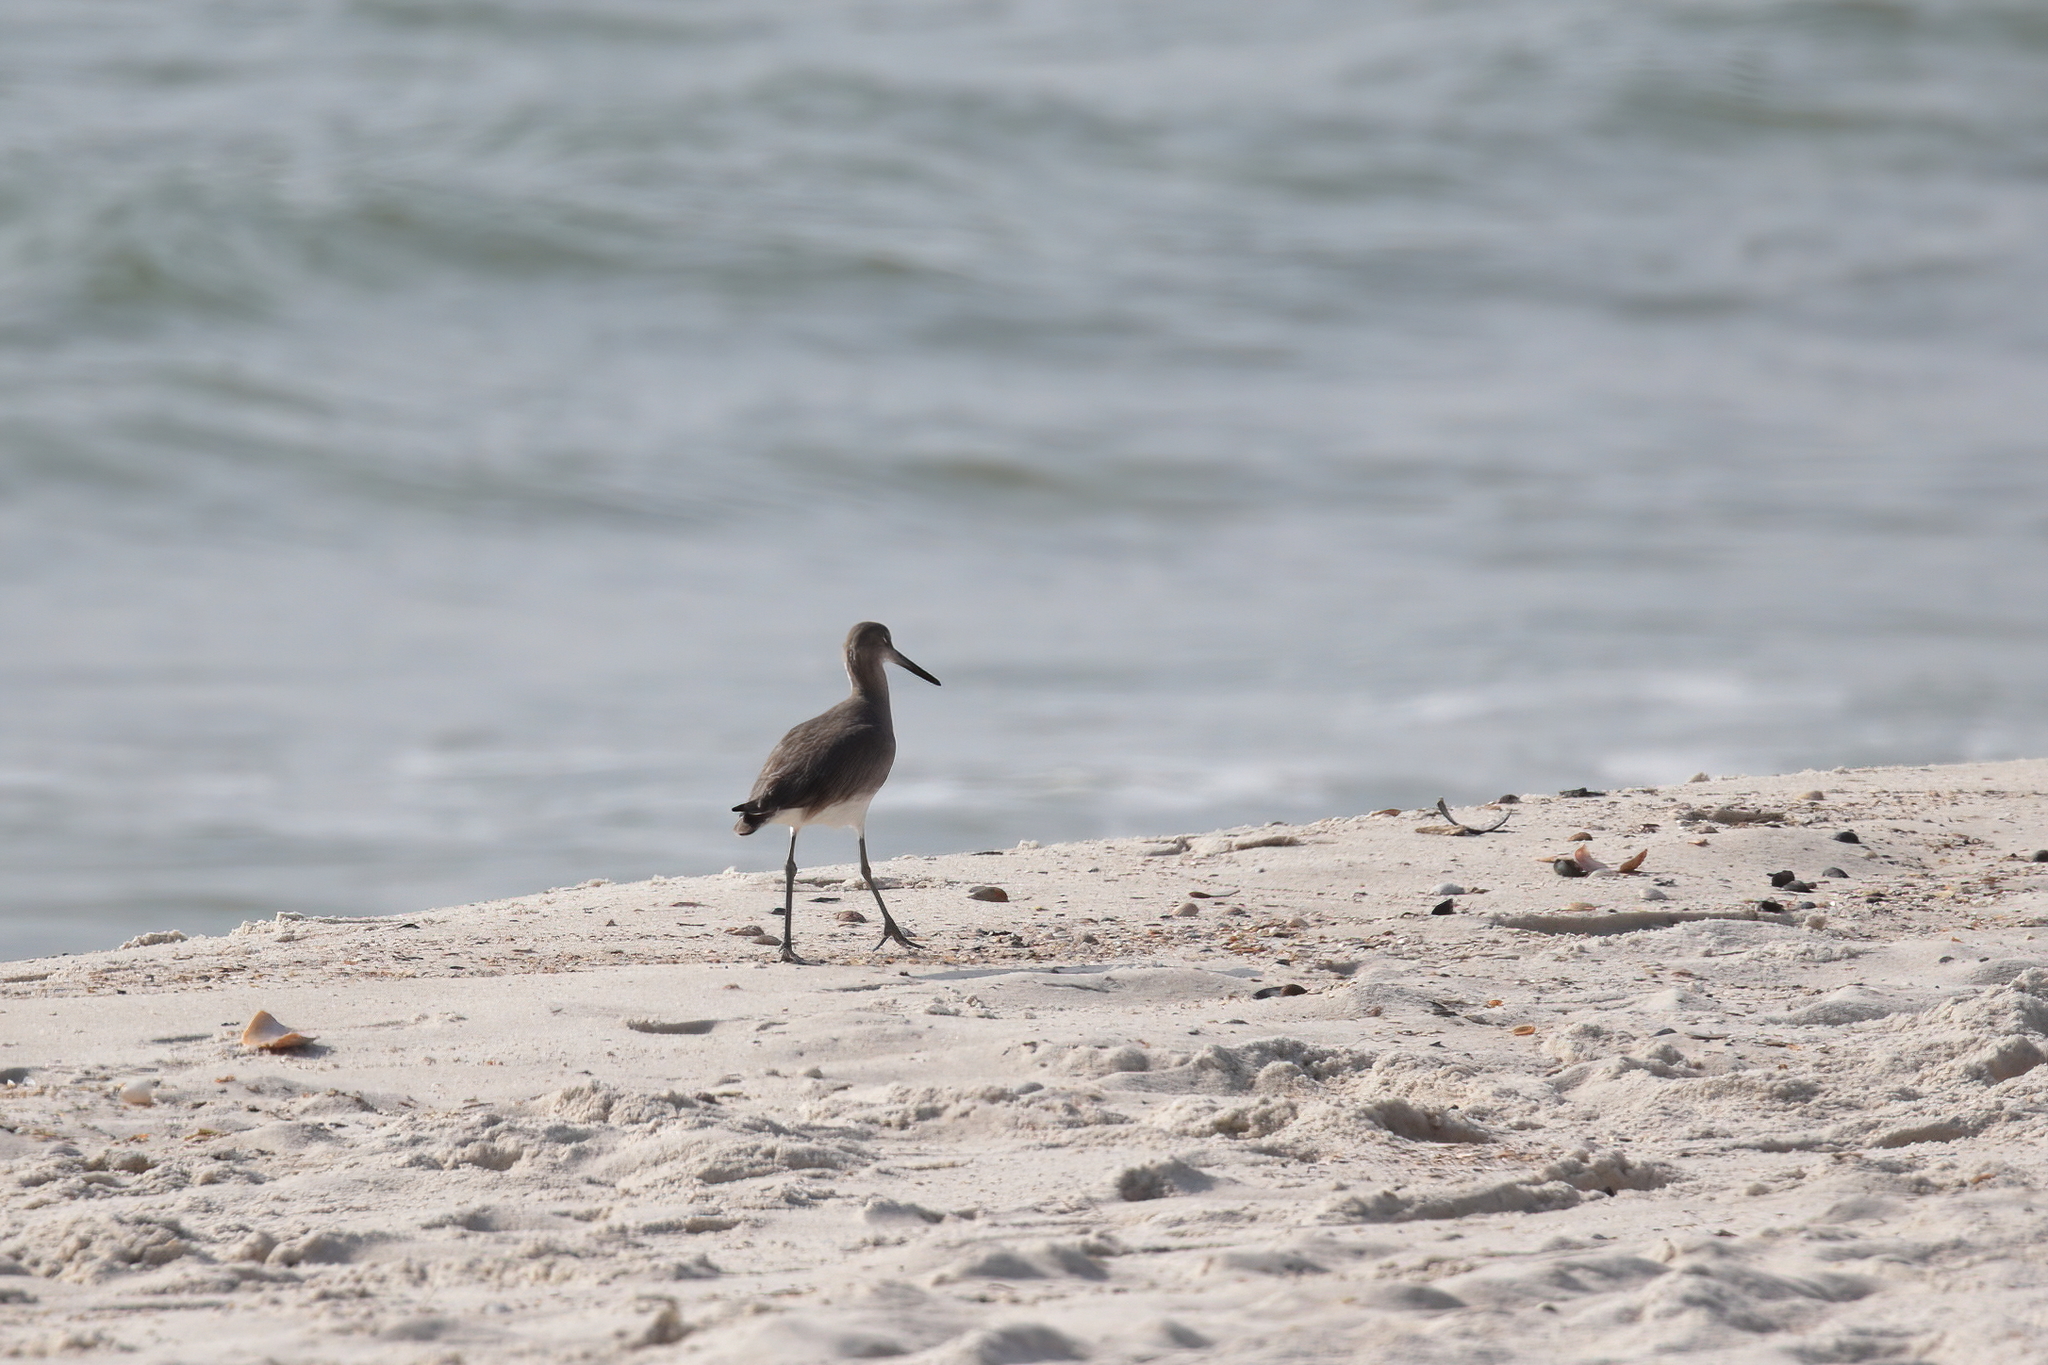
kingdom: Animalia
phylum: Chordata
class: Aves
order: Charadriiformes
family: Scolopacidae
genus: Tringa
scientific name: Tringa semipalmata
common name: Willet
